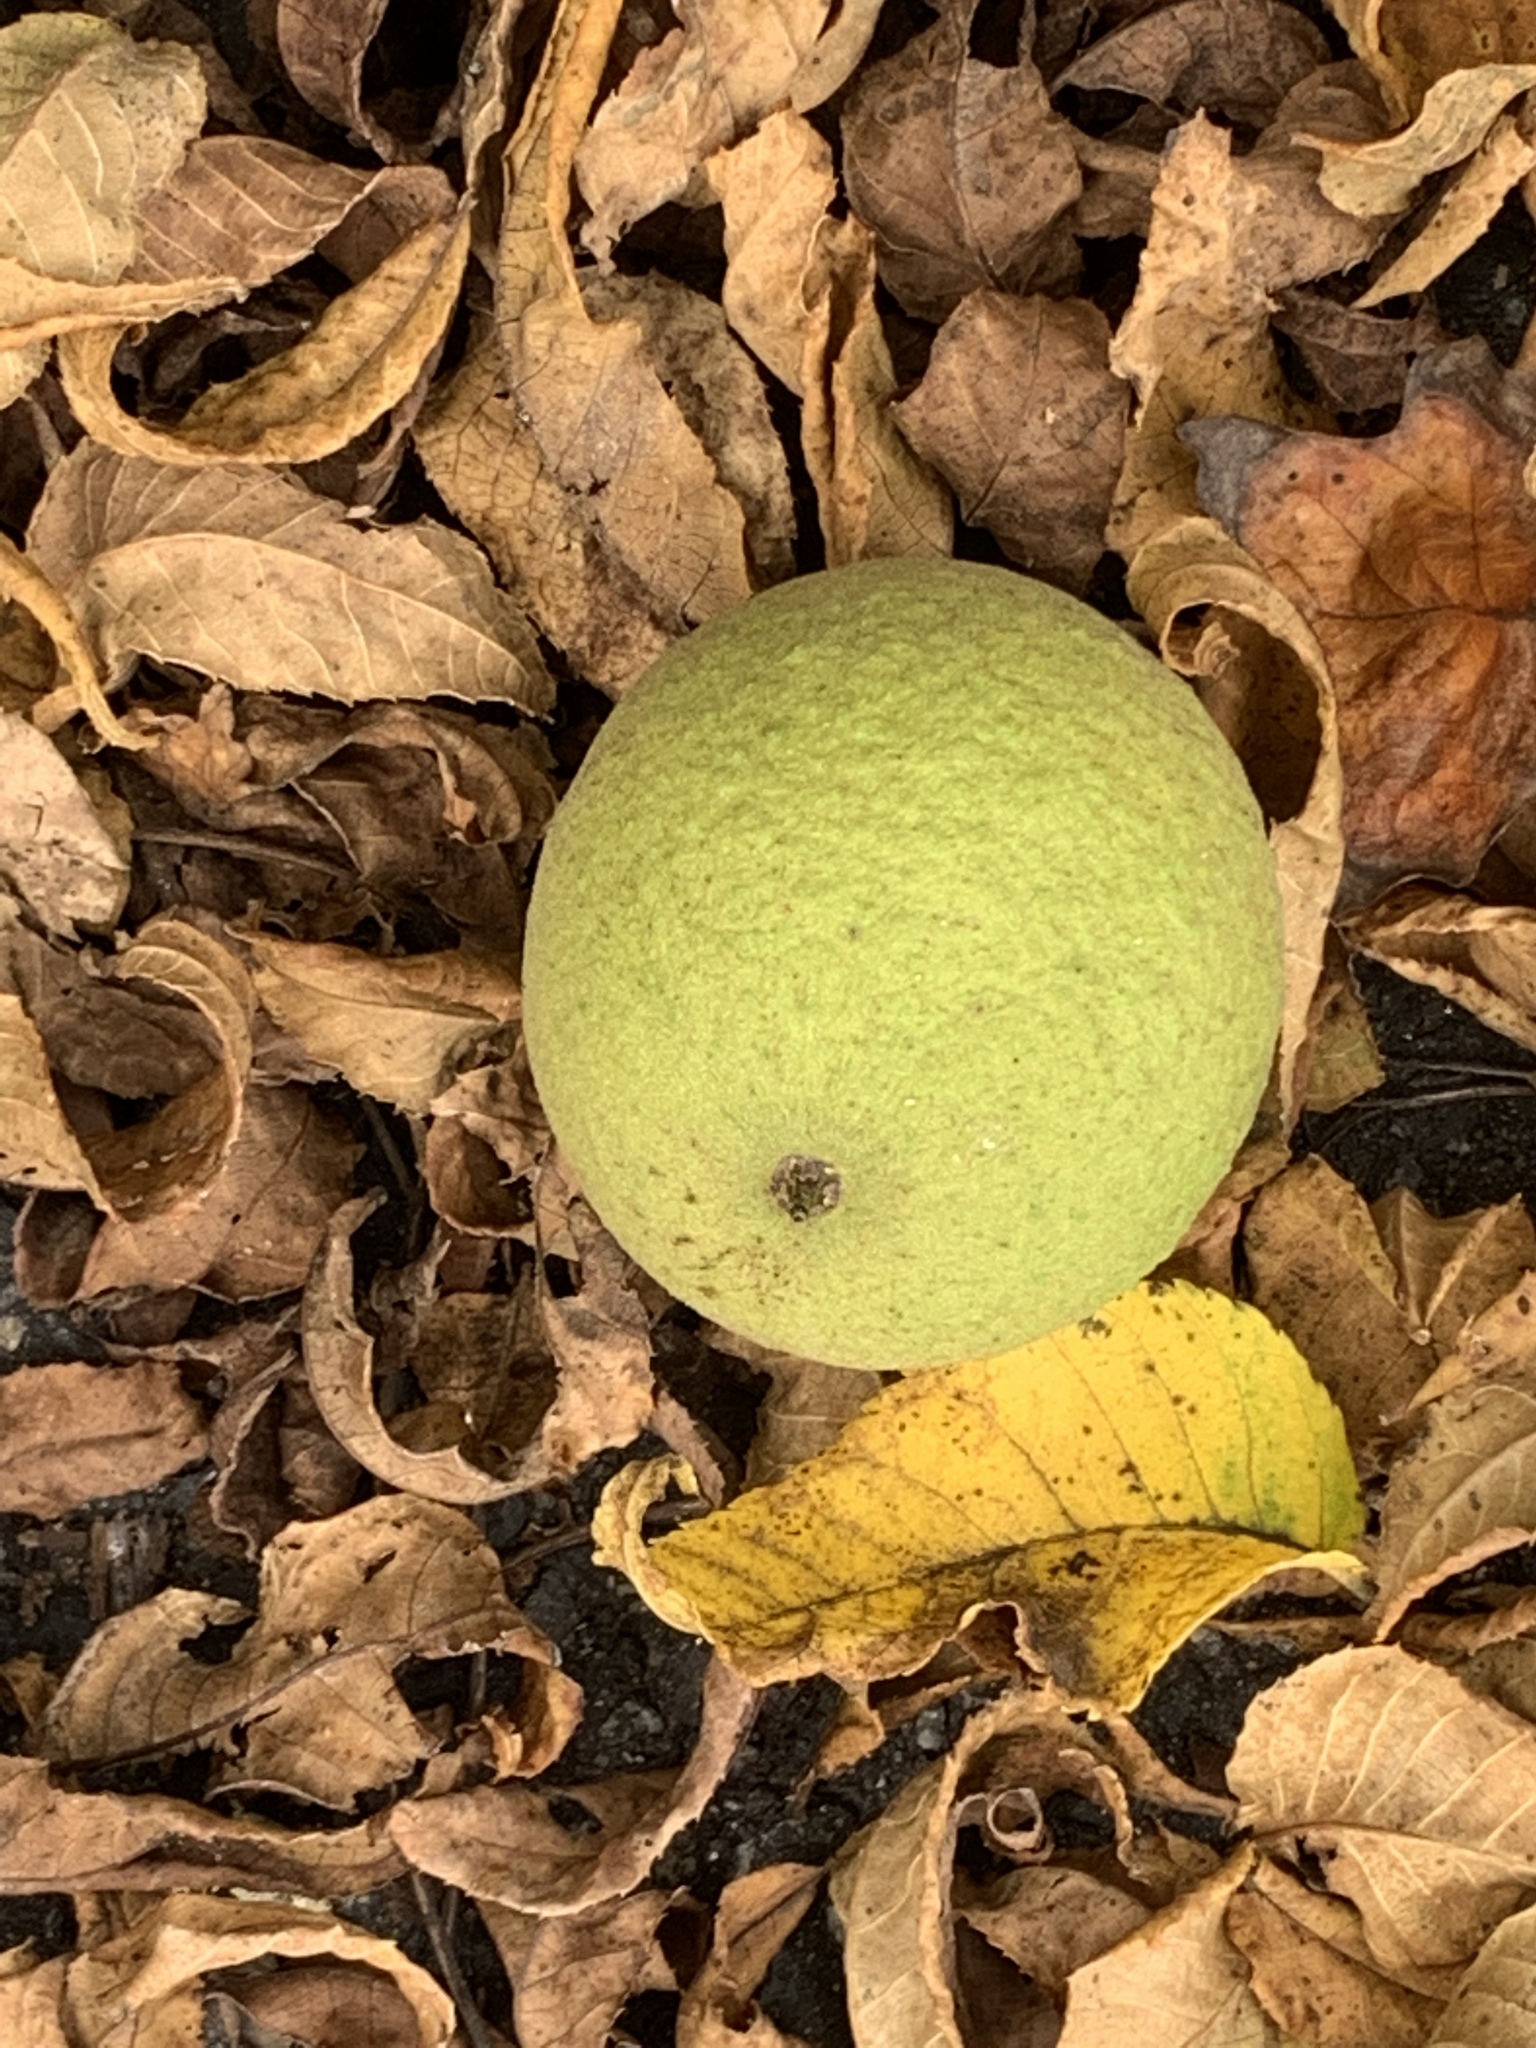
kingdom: Plantae
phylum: Tracheophyta
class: Magnoliopsida
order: Fagales
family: Juglandaceae
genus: Juglans
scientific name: Juglans nigra
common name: Black walnut
